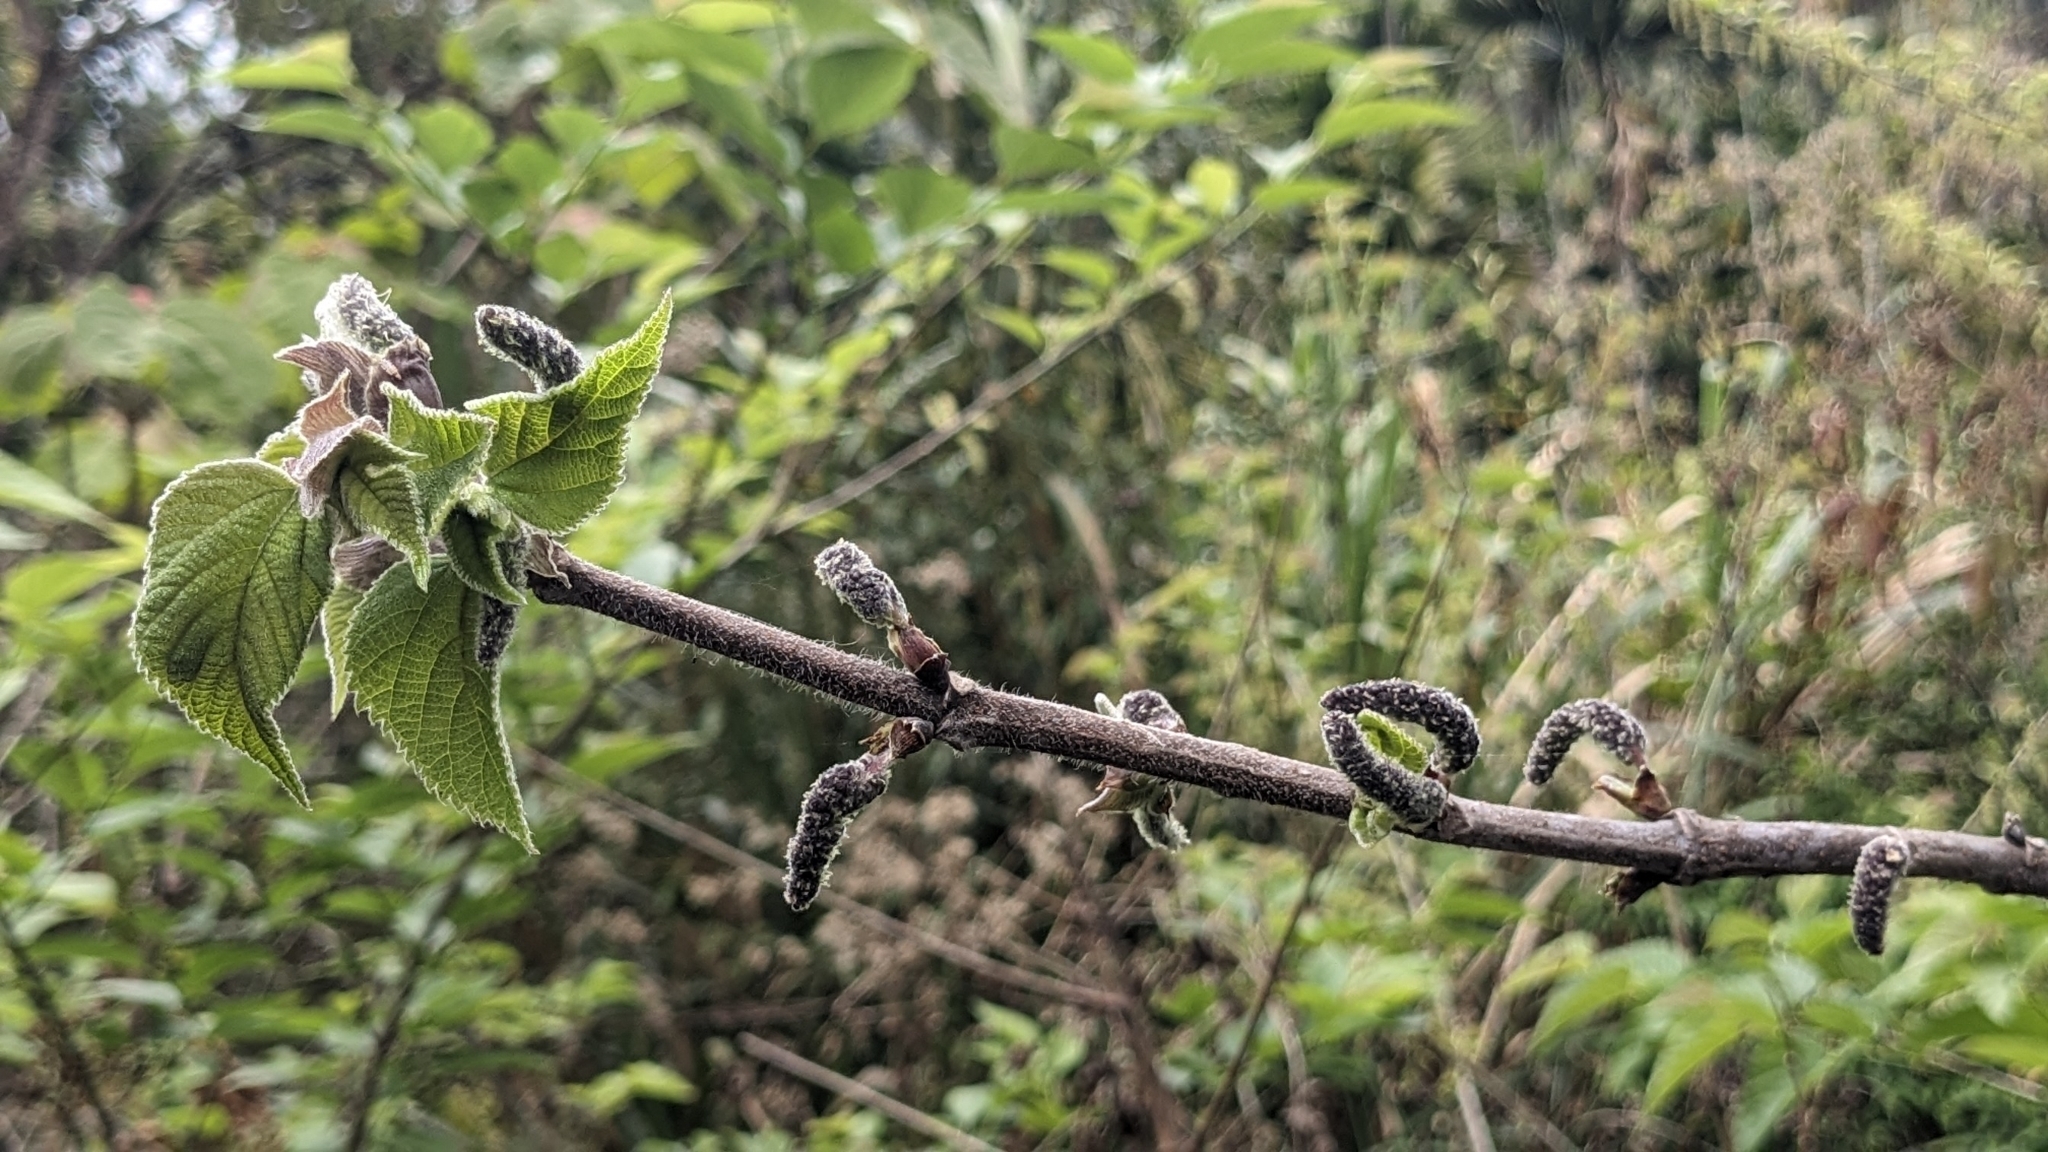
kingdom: Plantae
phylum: Tracheophyta
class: Magnoliopsida
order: Rosales
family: Moraceae
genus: Broussonetia
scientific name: Broussonetia papyrifera
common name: Paper mulberry
